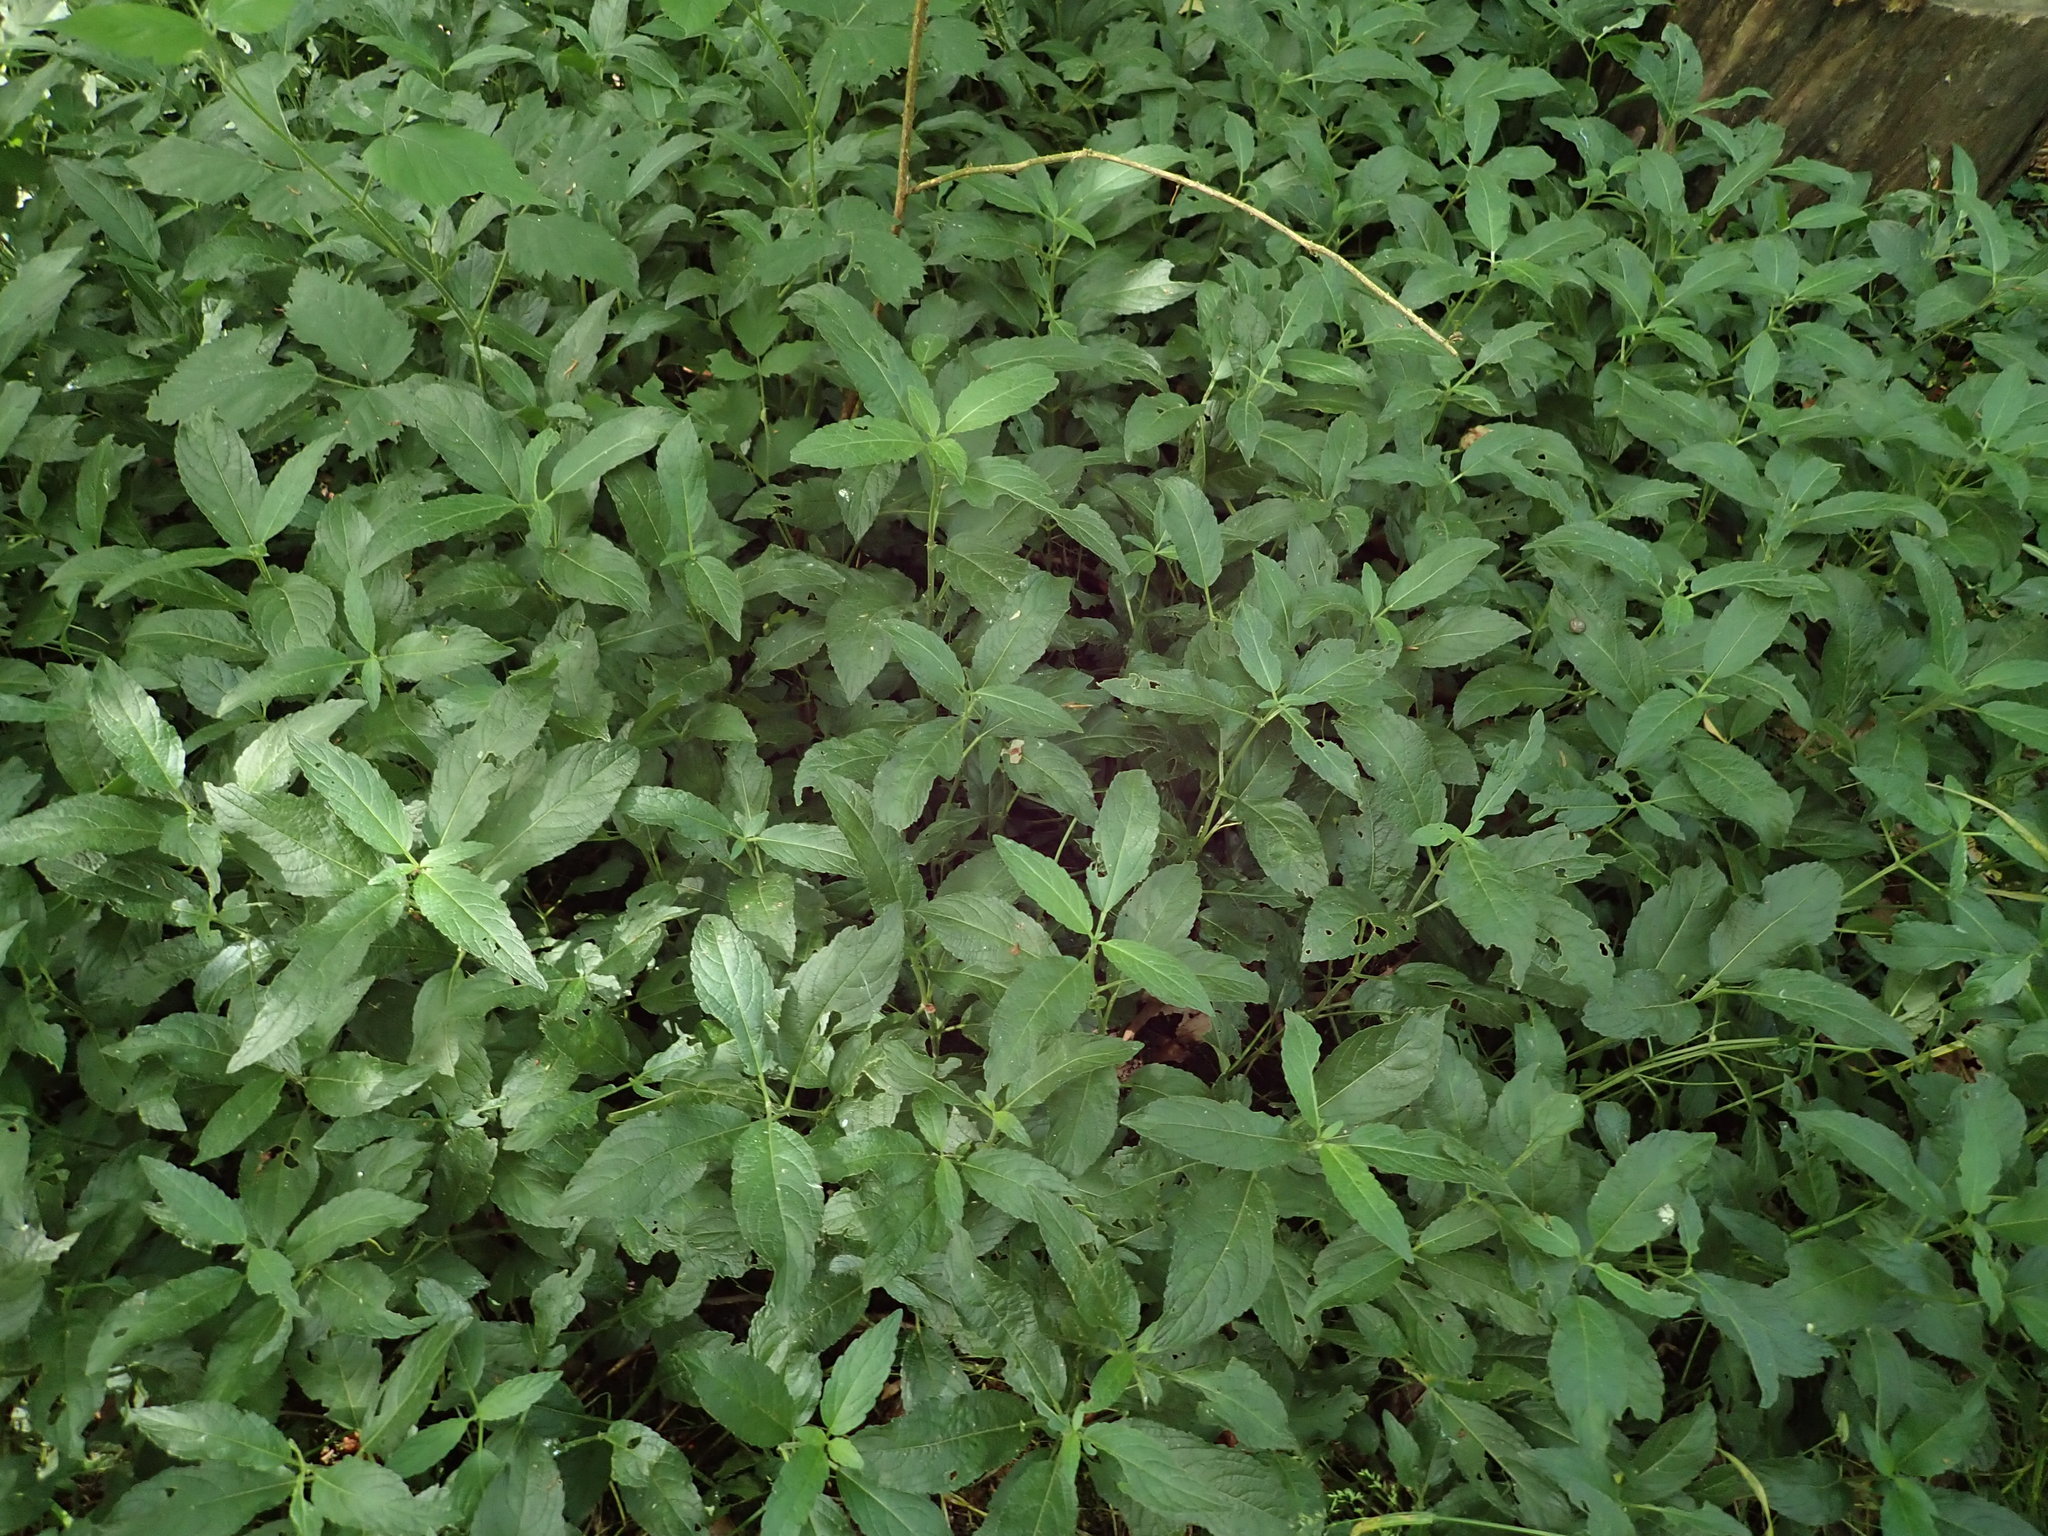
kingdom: Plantae
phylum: Tracheophyta
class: Magnoliopsida
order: Malpighiales
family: Euphorbiaceae
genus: Mercurialis
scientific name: Mercurialis perennis
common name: Dog mercury
